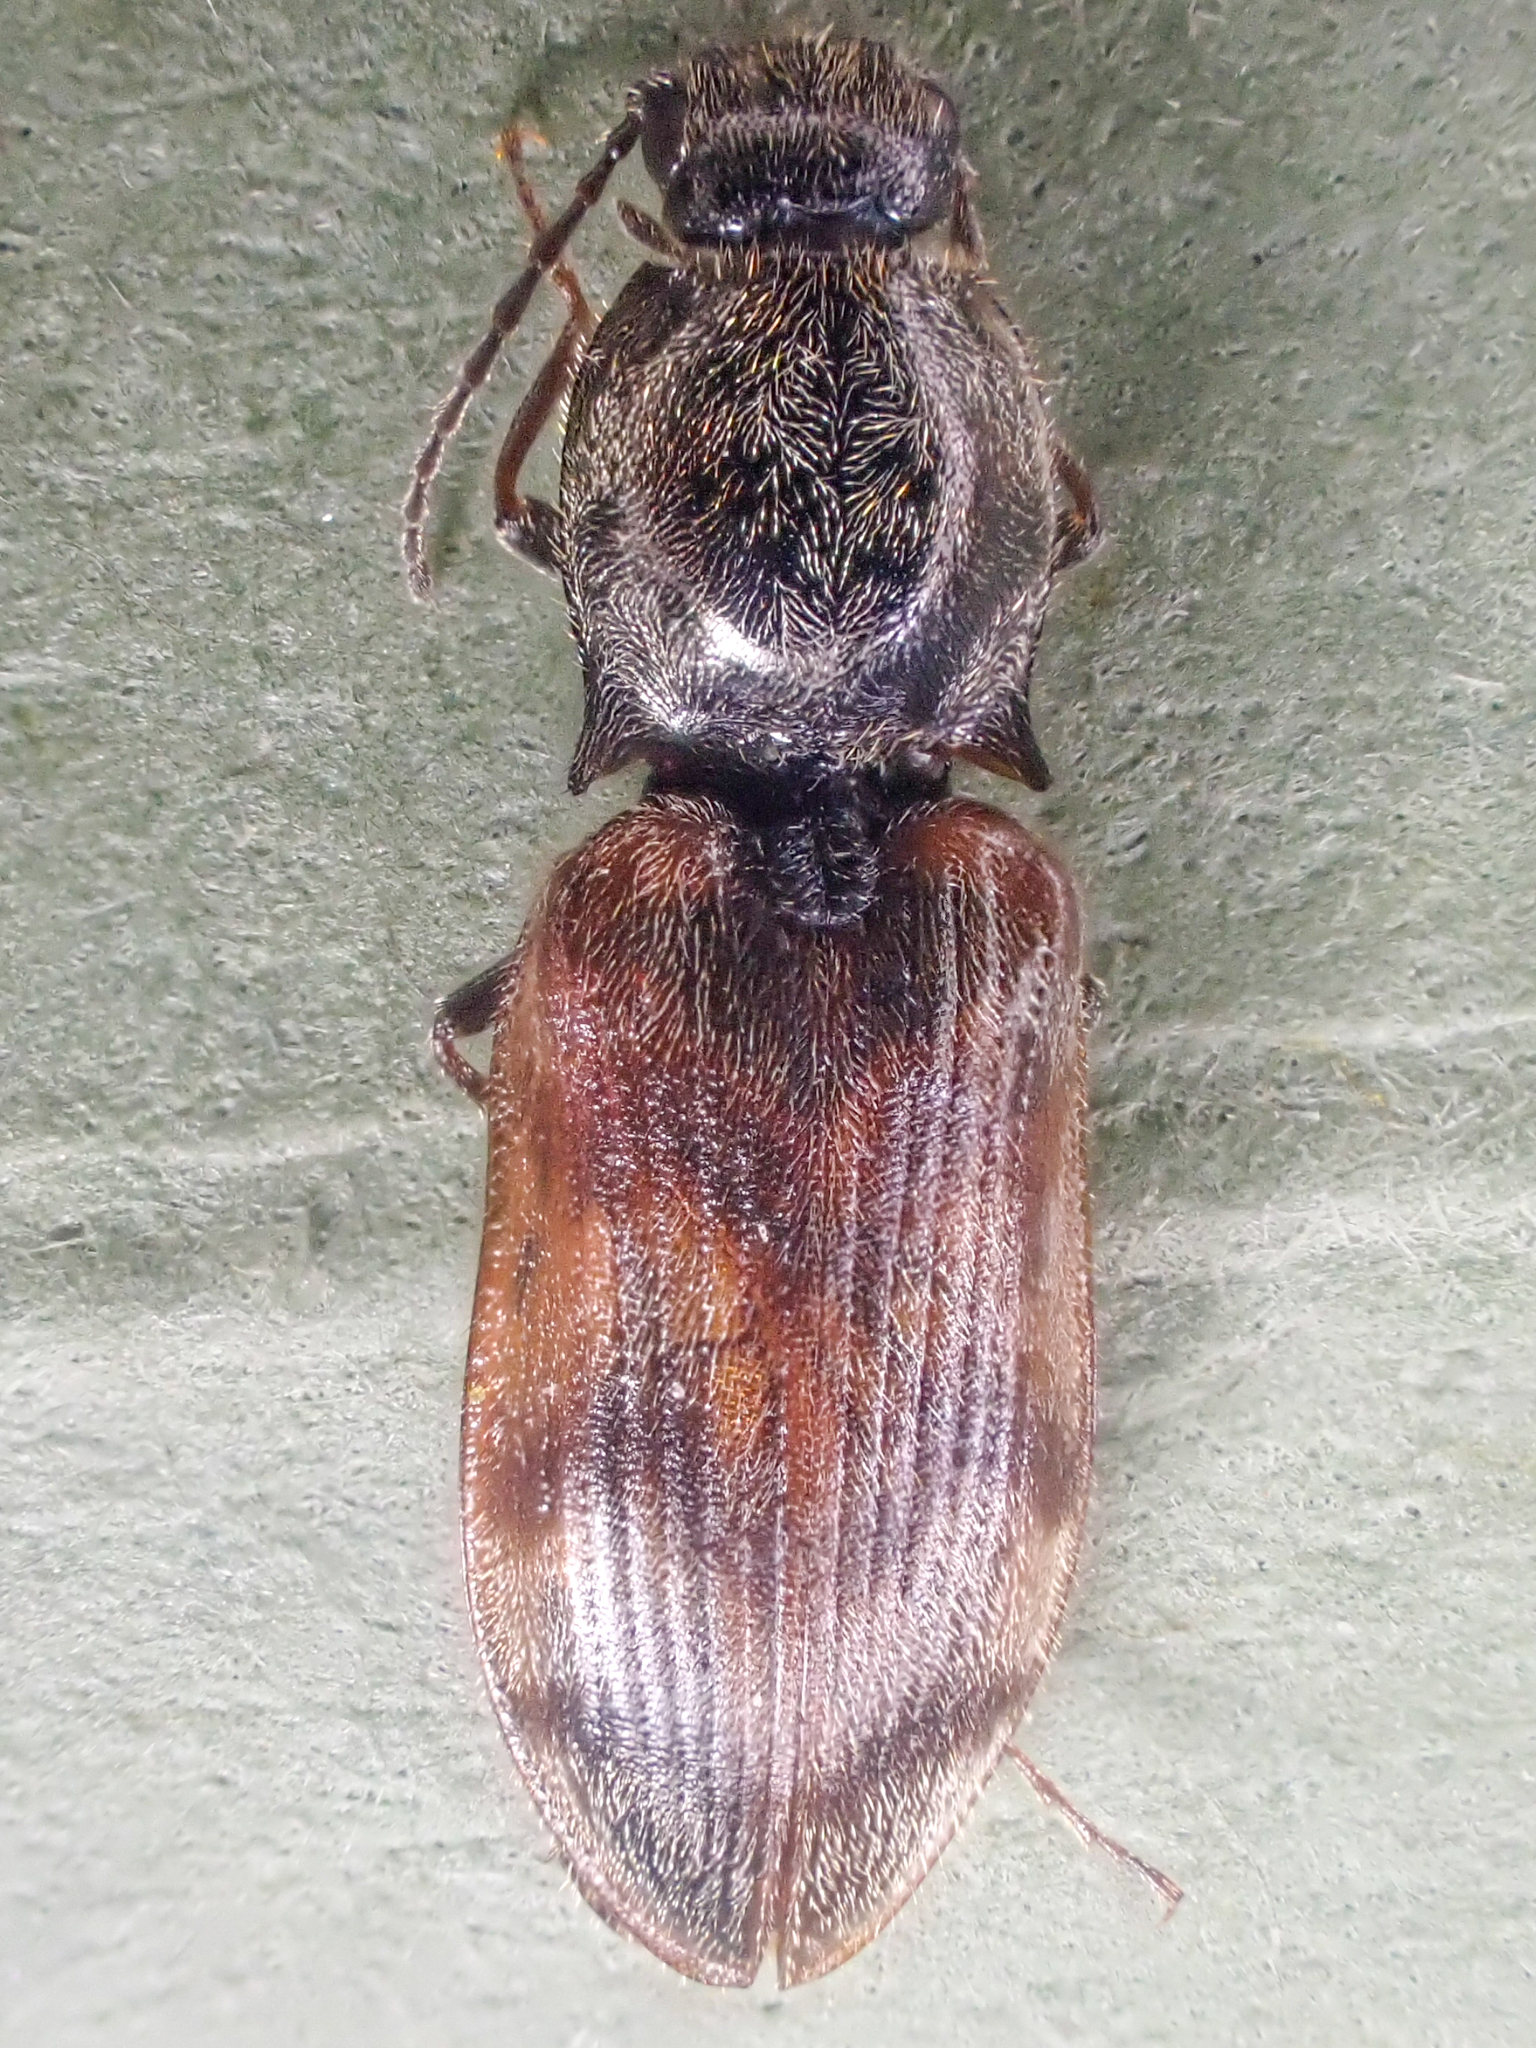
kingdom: Animalia
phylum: Arthropoda
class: Insecta
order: Coleoptera
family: Elateridae
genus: Pseudanostirus
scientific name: Pseudanostirus triundulatus
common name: Three-spotted click beetle
